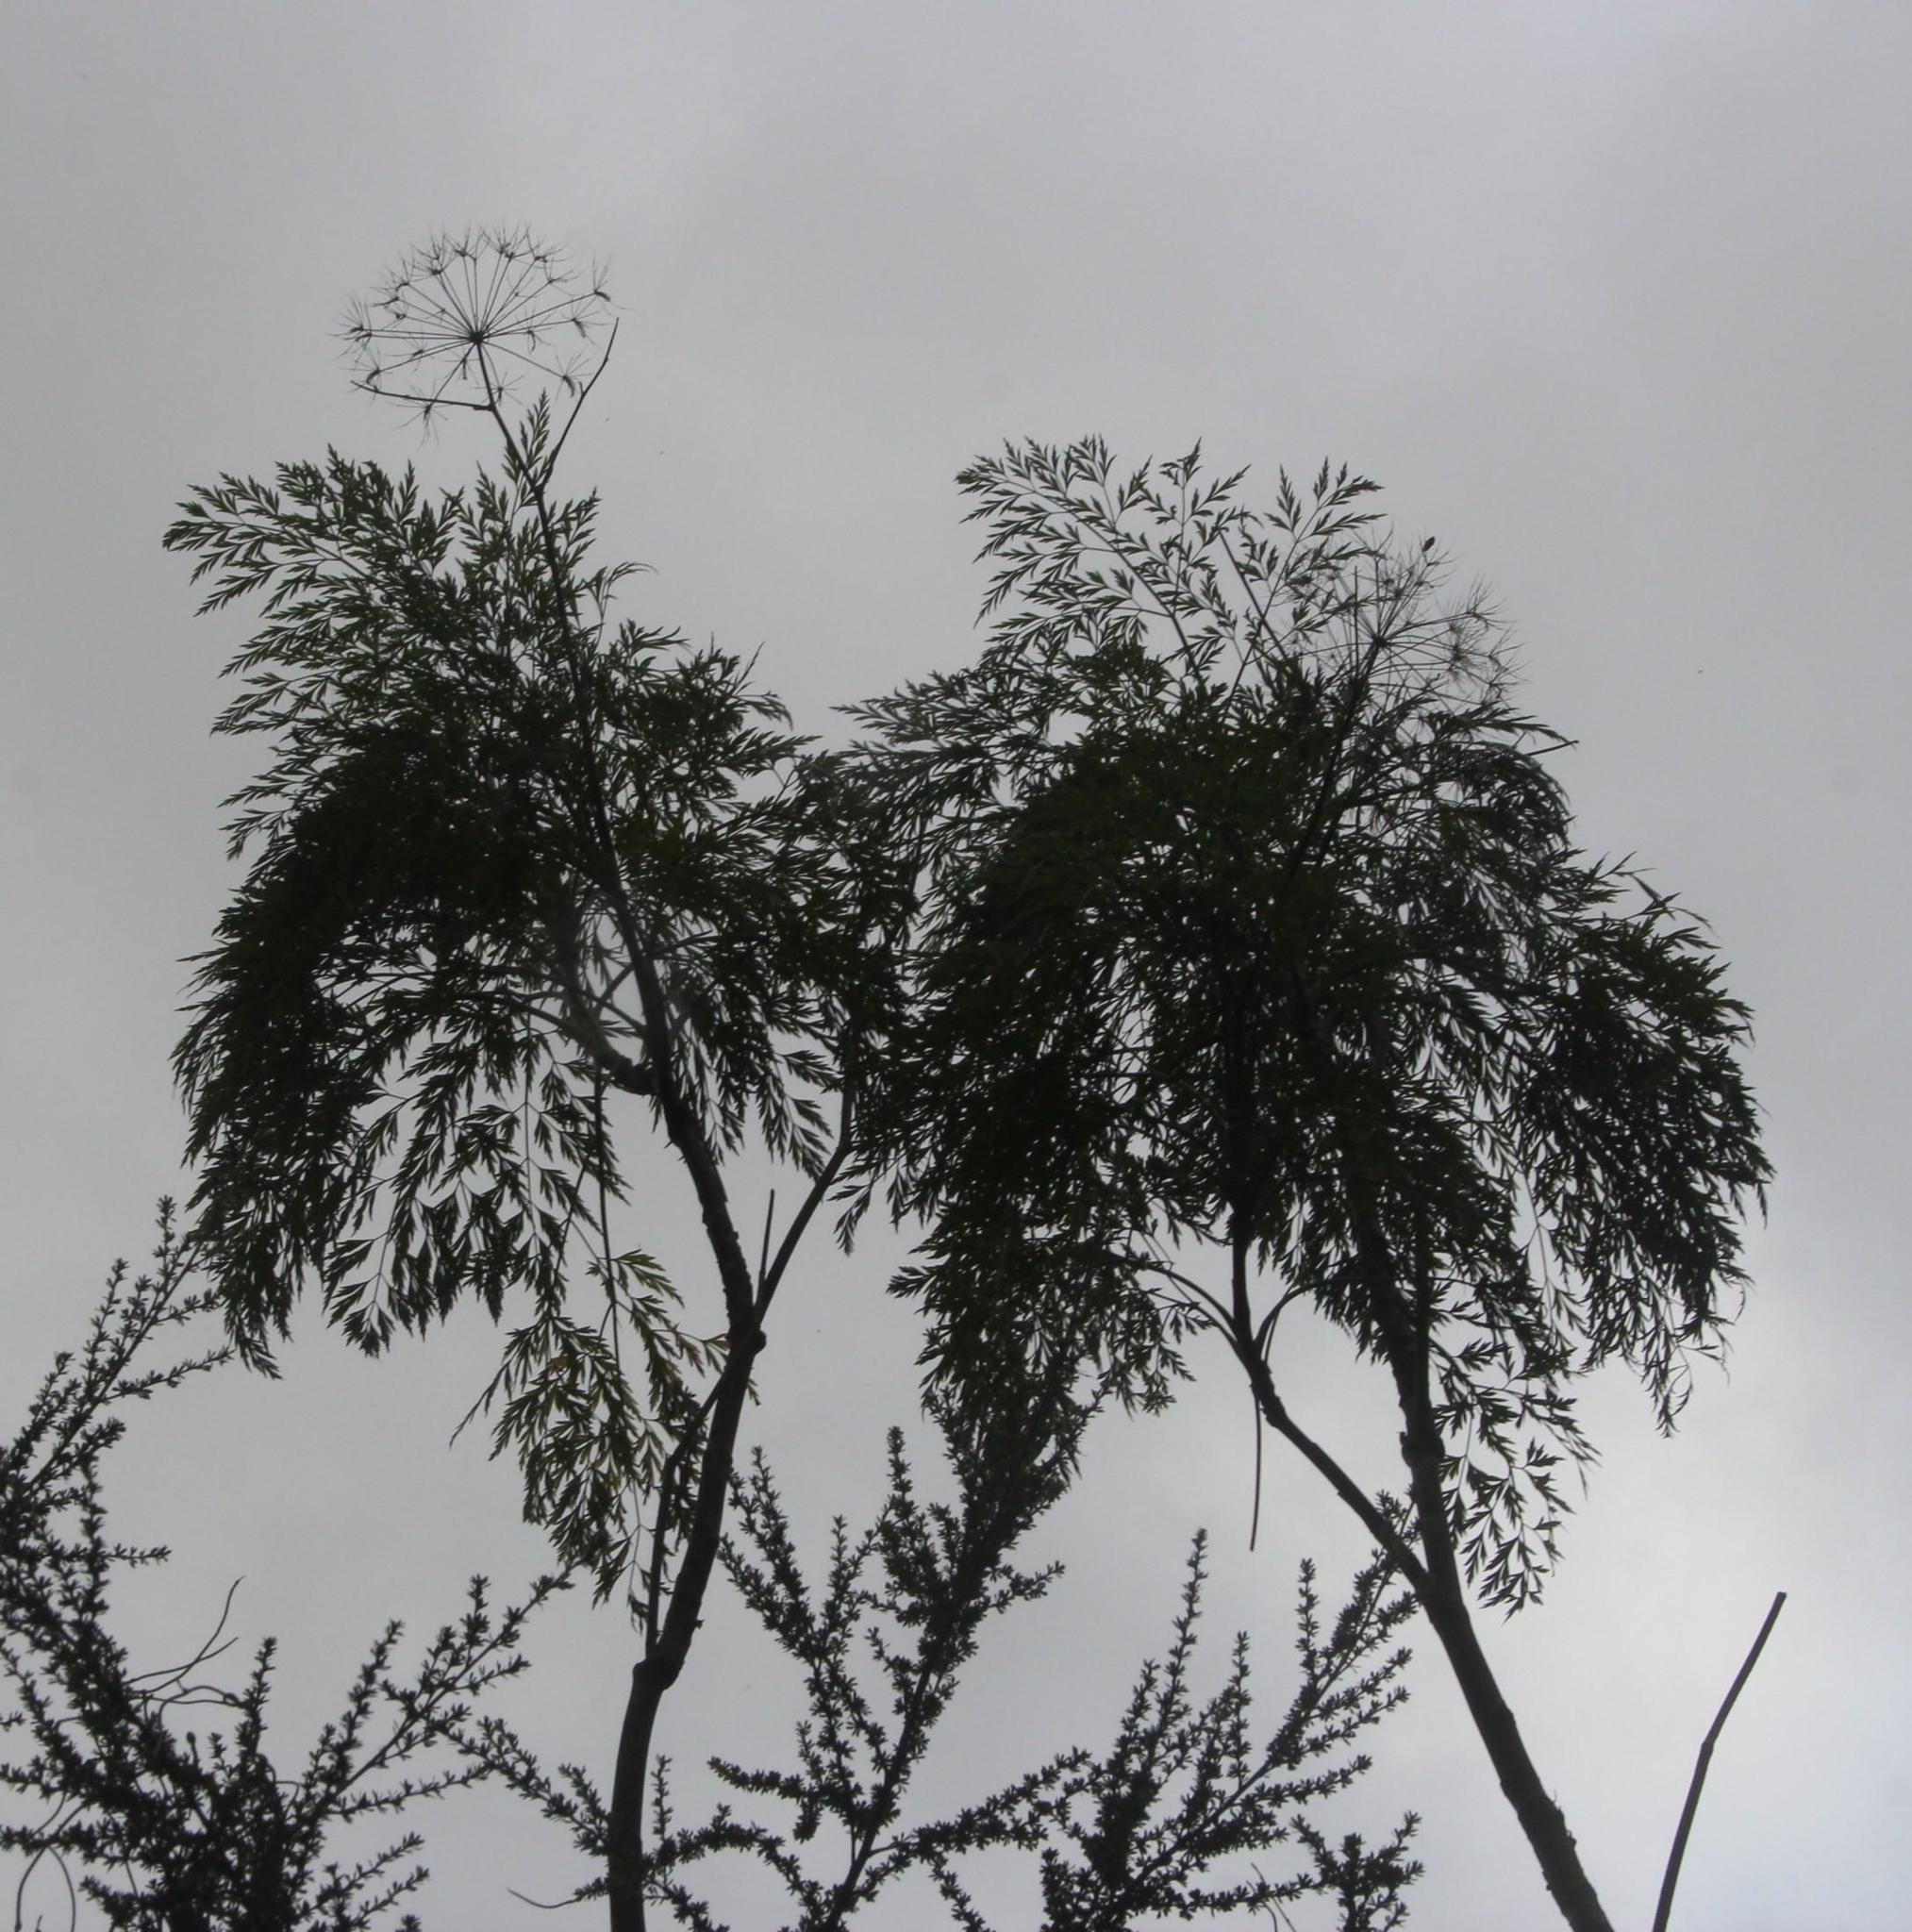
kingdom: Plantae
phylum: Tracheophyta
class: Magnoliopsida
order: Apiales
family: Apiaceae
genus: Notobubon
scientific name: Notobubon gummiferum
